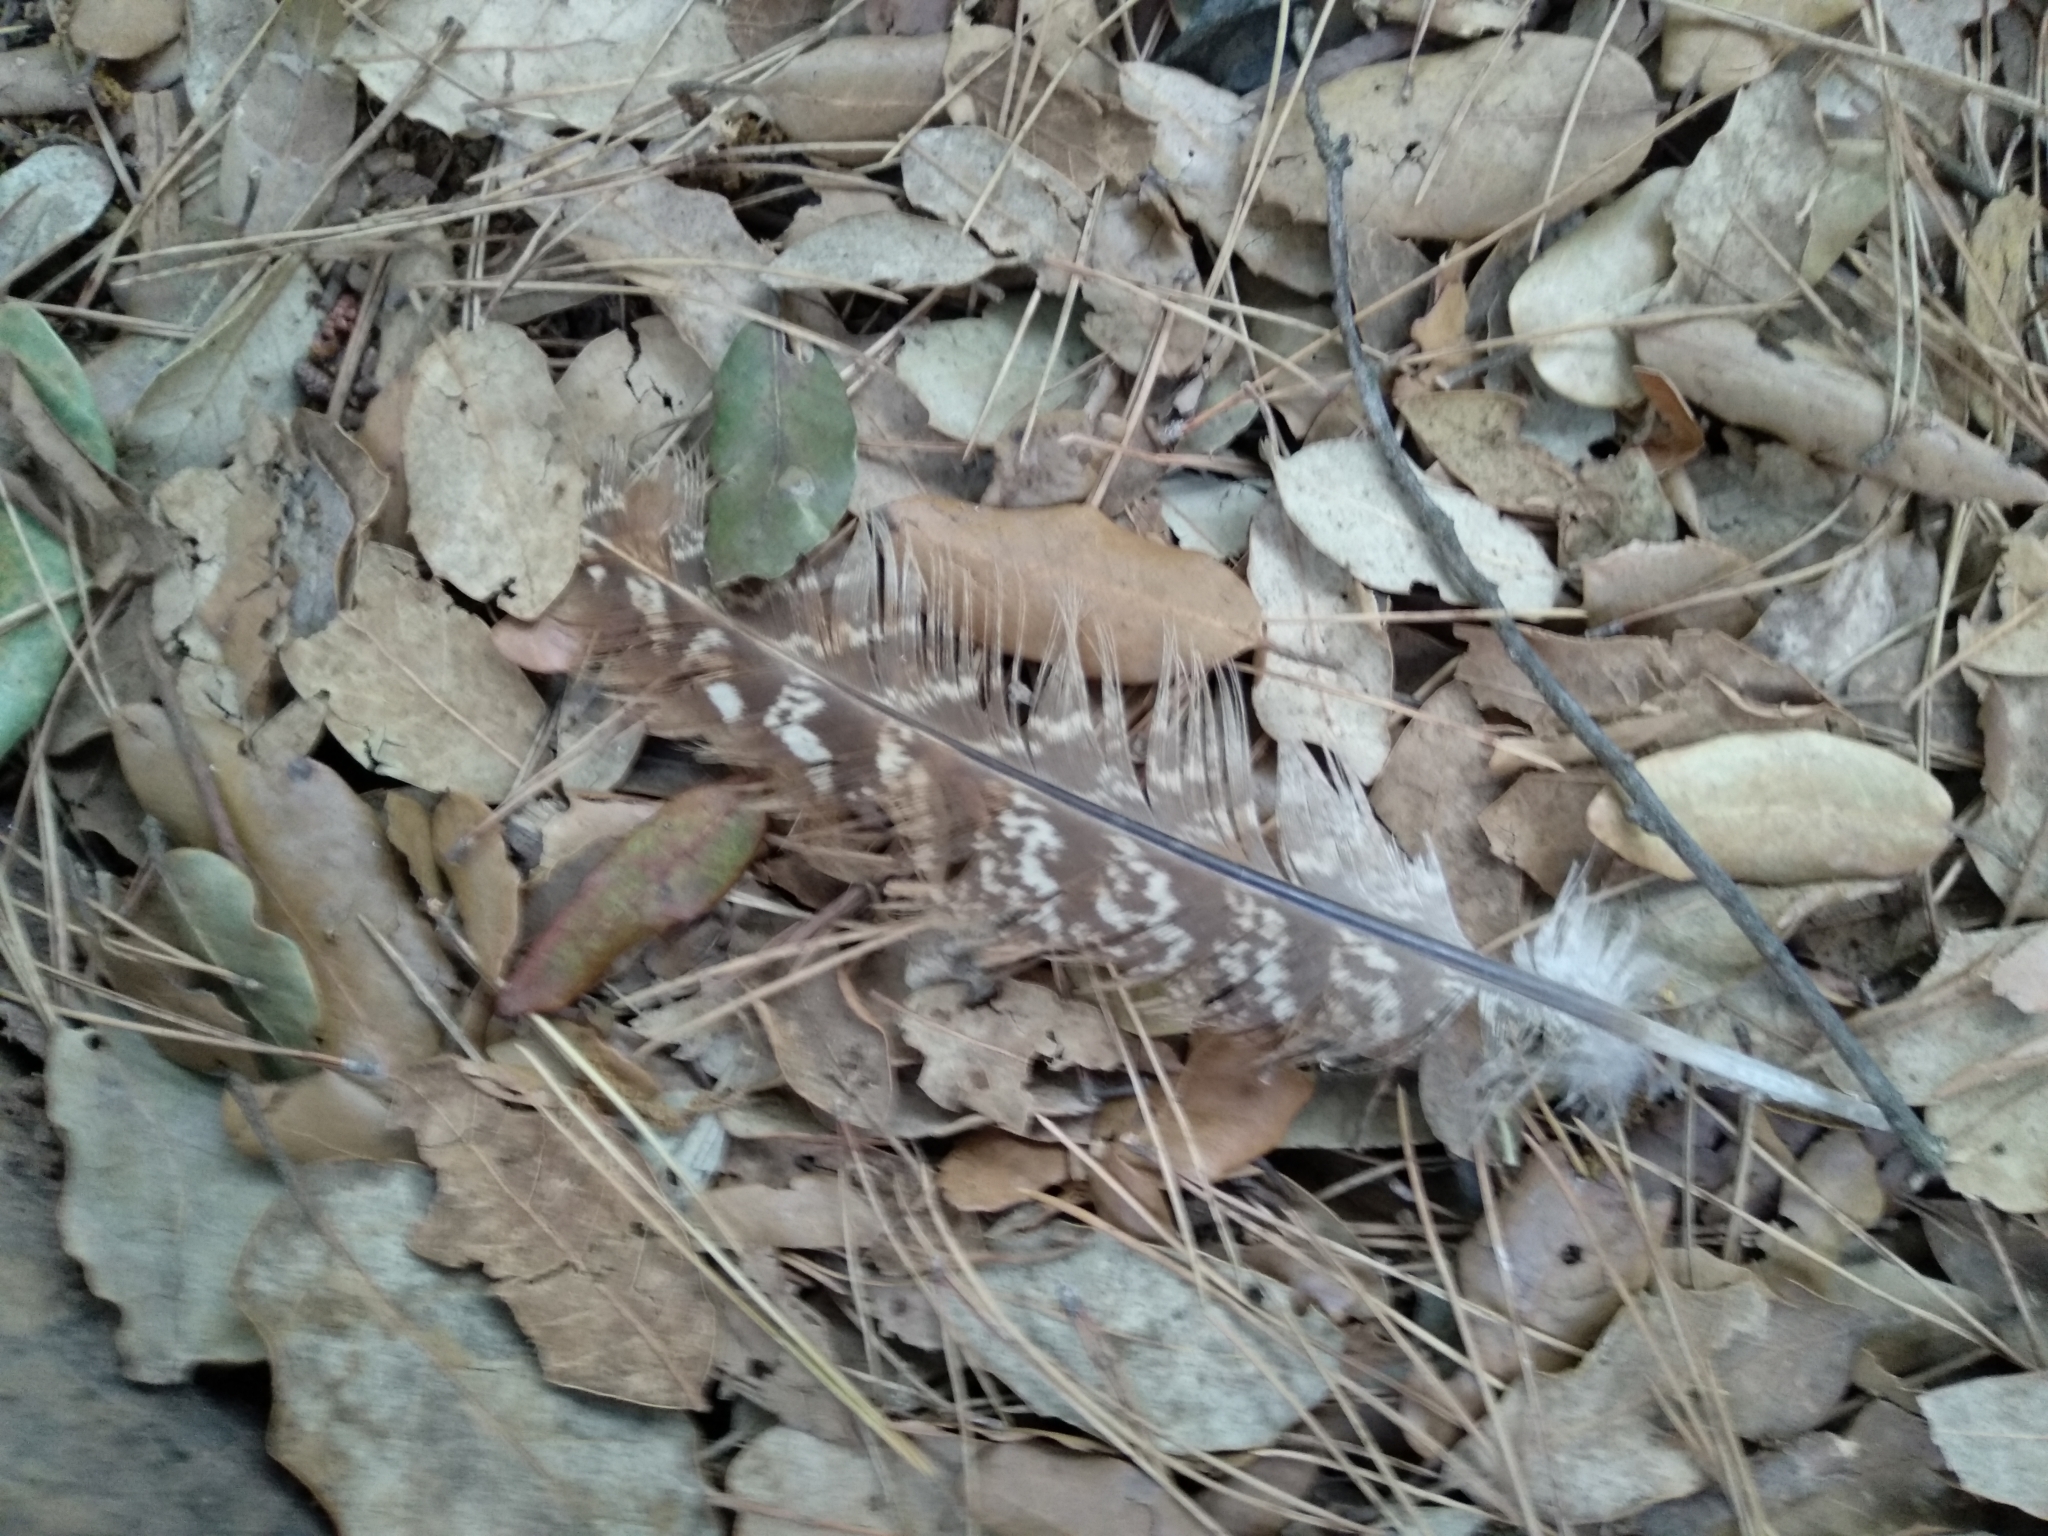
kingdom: Animalia
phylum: Chordata
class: Aves
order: Galliformes
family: Phasianidae
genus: Phasianus
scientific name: Phasianus colchicus
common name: Common pheasant
